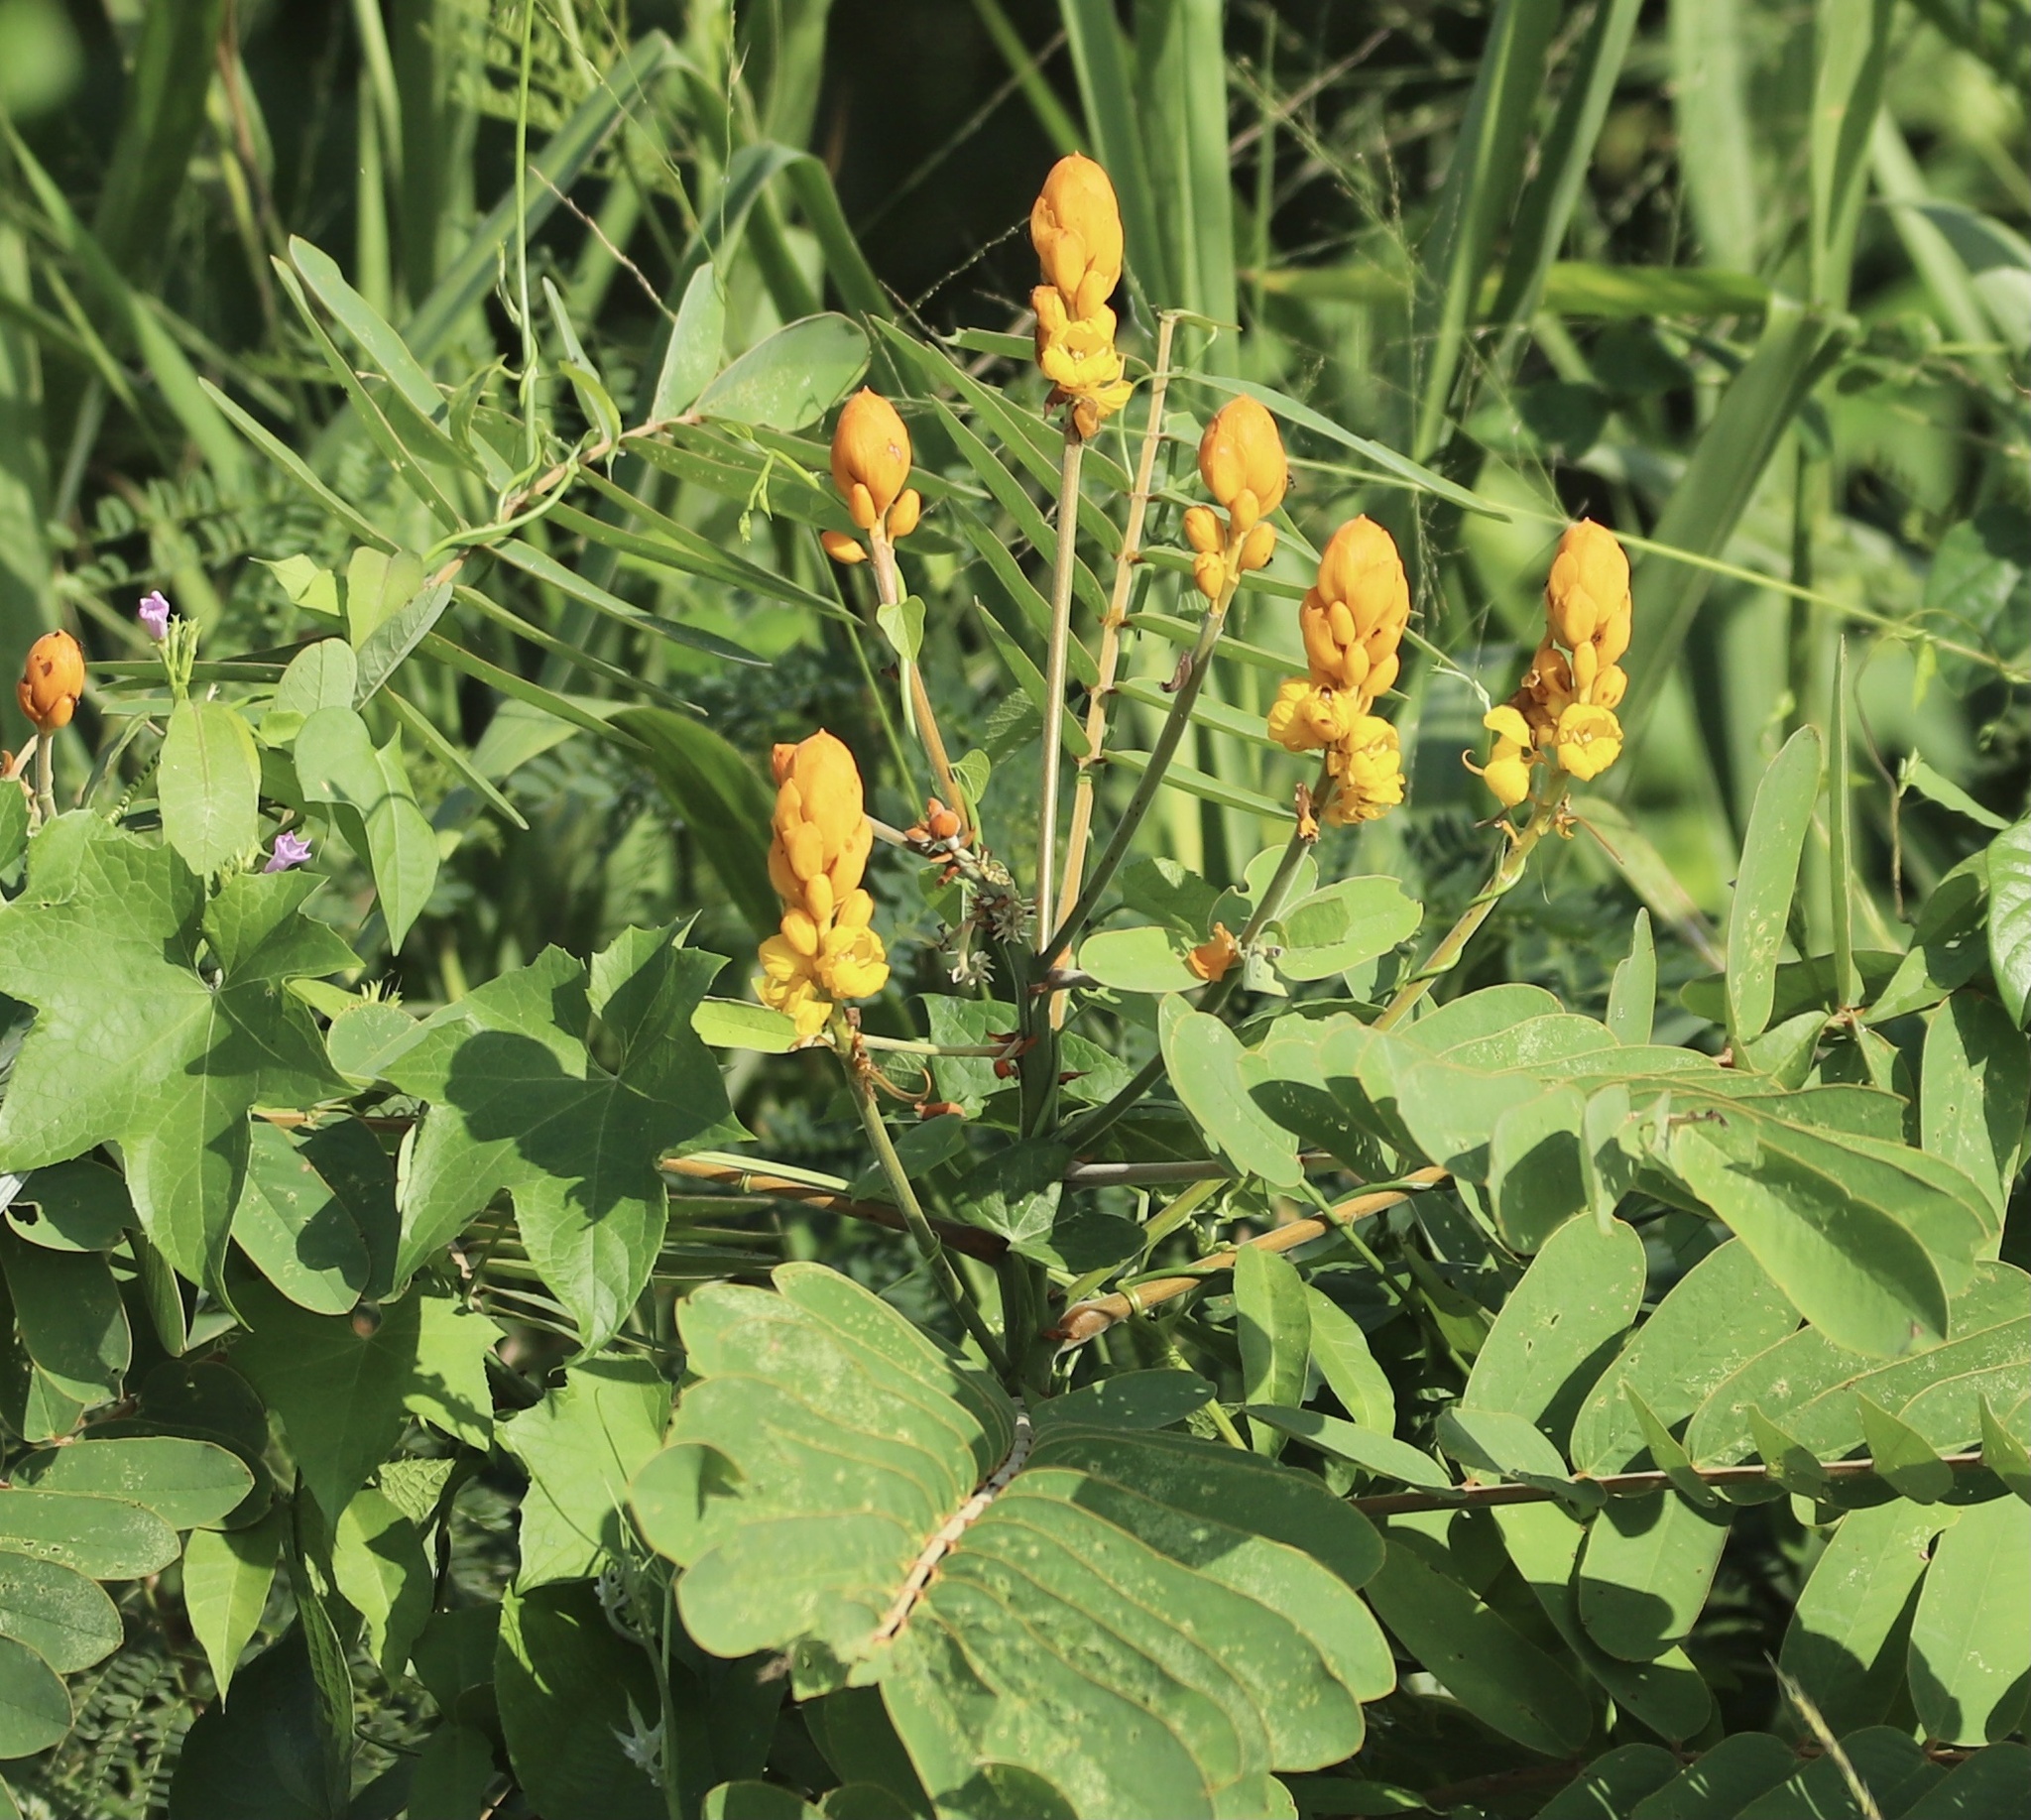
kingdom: Plantae
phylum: Tracheophyta
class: Magnoliopsida
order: Fabales
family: Fabaceae
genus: Senna
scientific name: Senna reticulata
